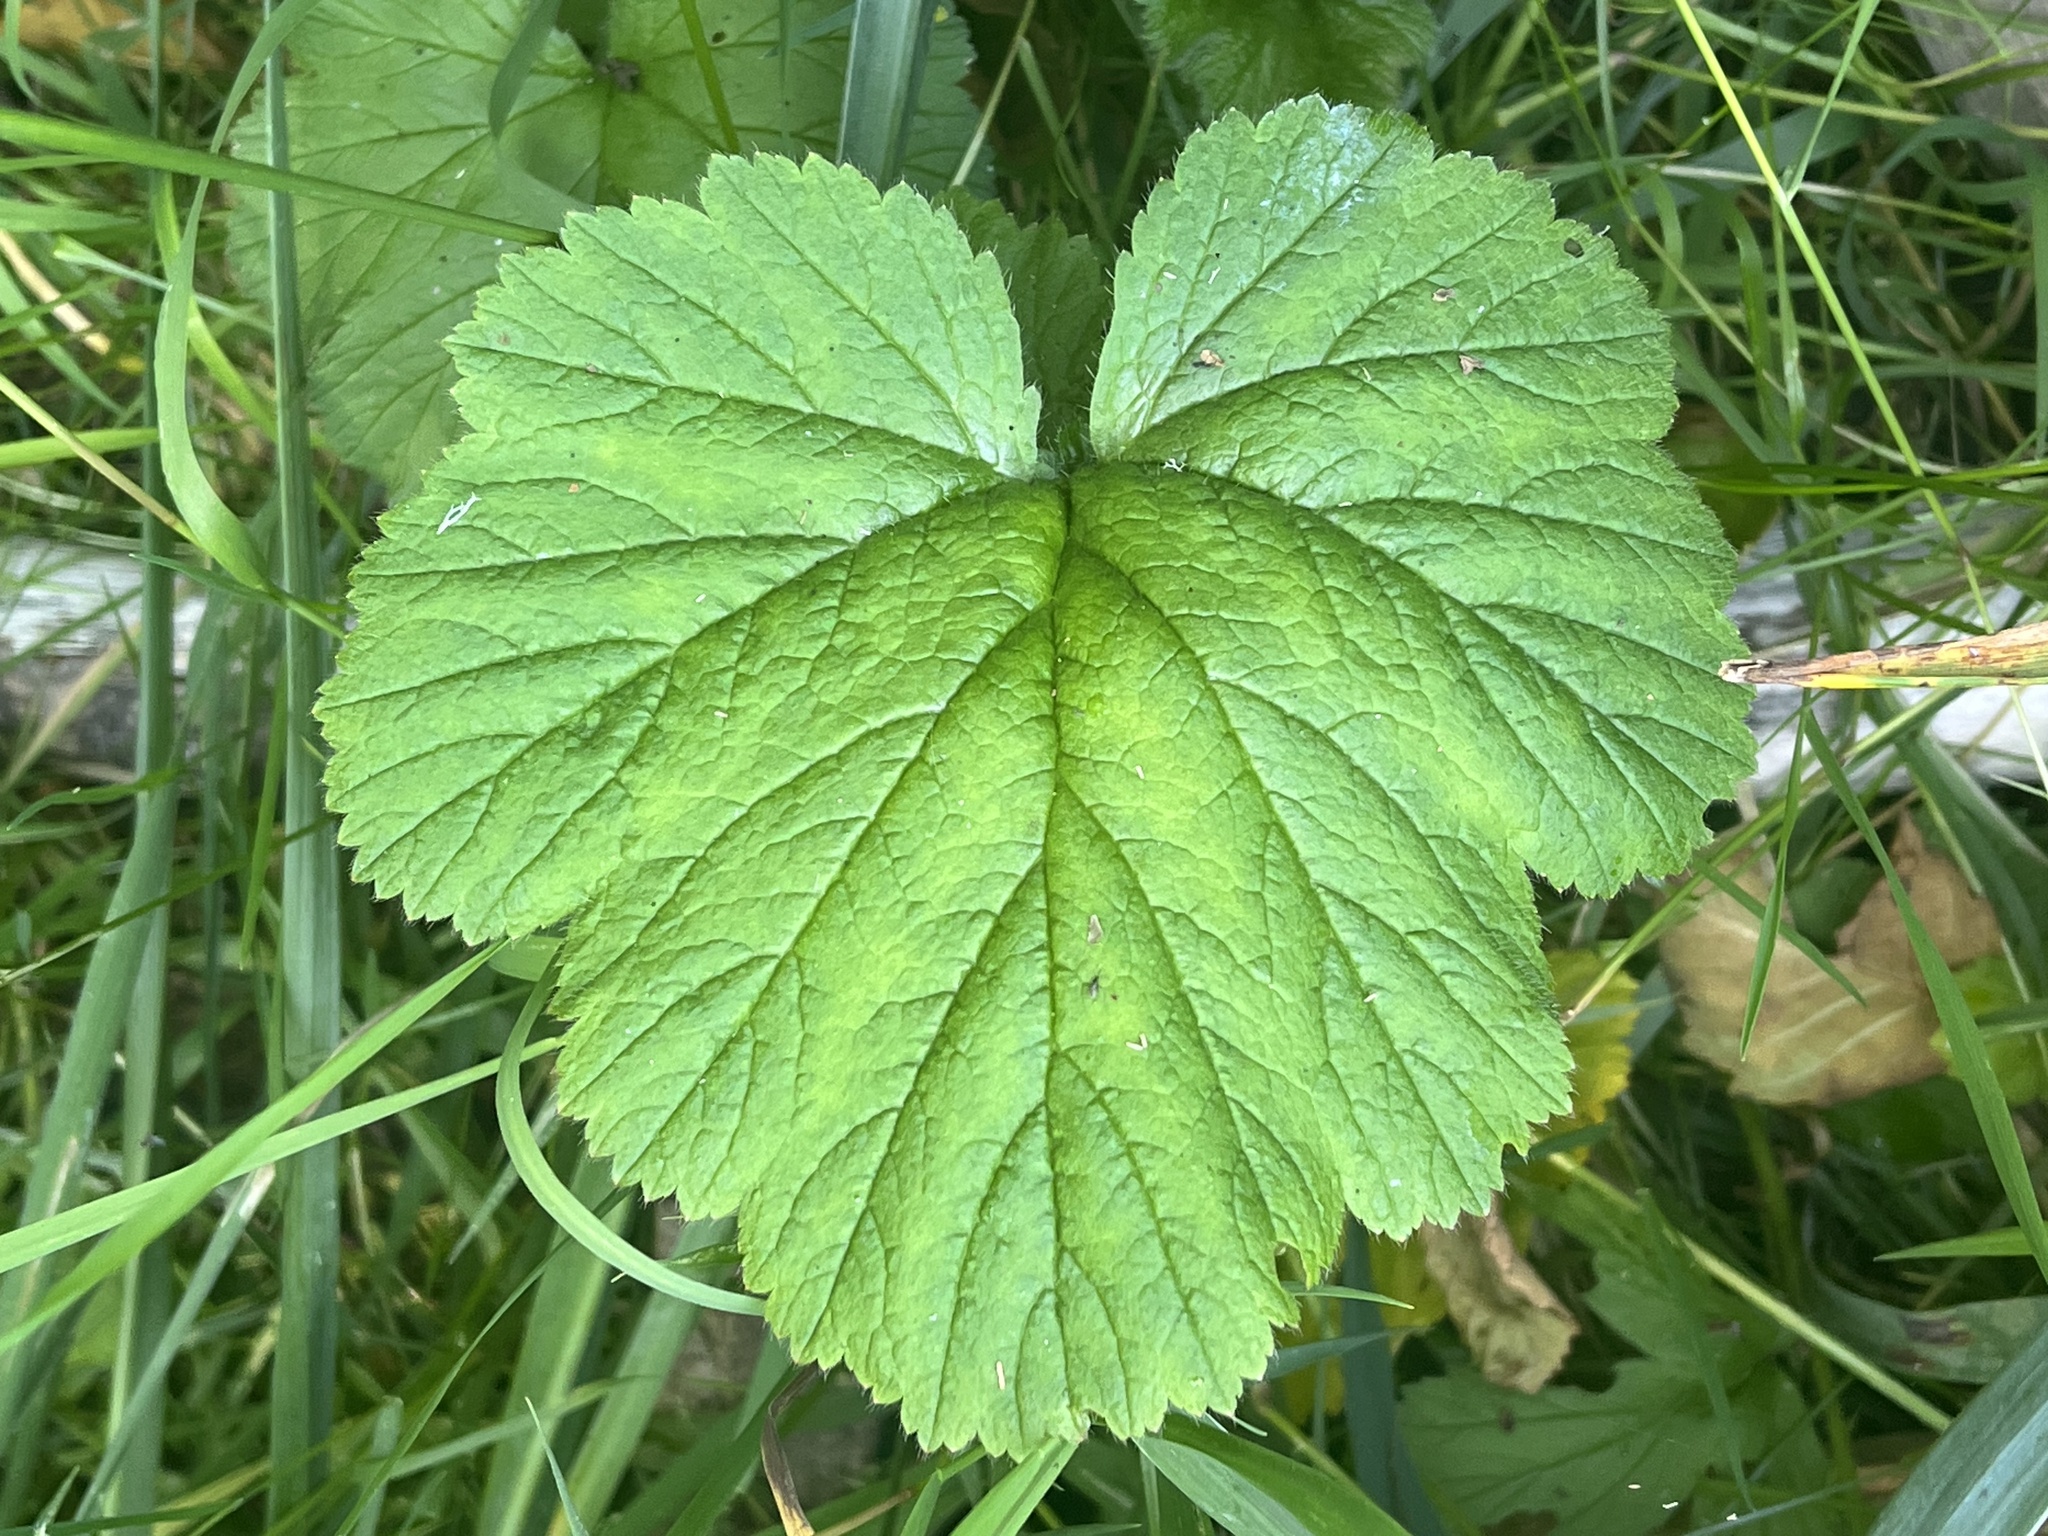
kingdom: Plantae
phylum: Tracheophyta
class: Magnoliopsida
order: Rosales
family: Rosaceae
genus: Geum
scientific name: Geum macrophyllum
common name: Large-leaved avens
